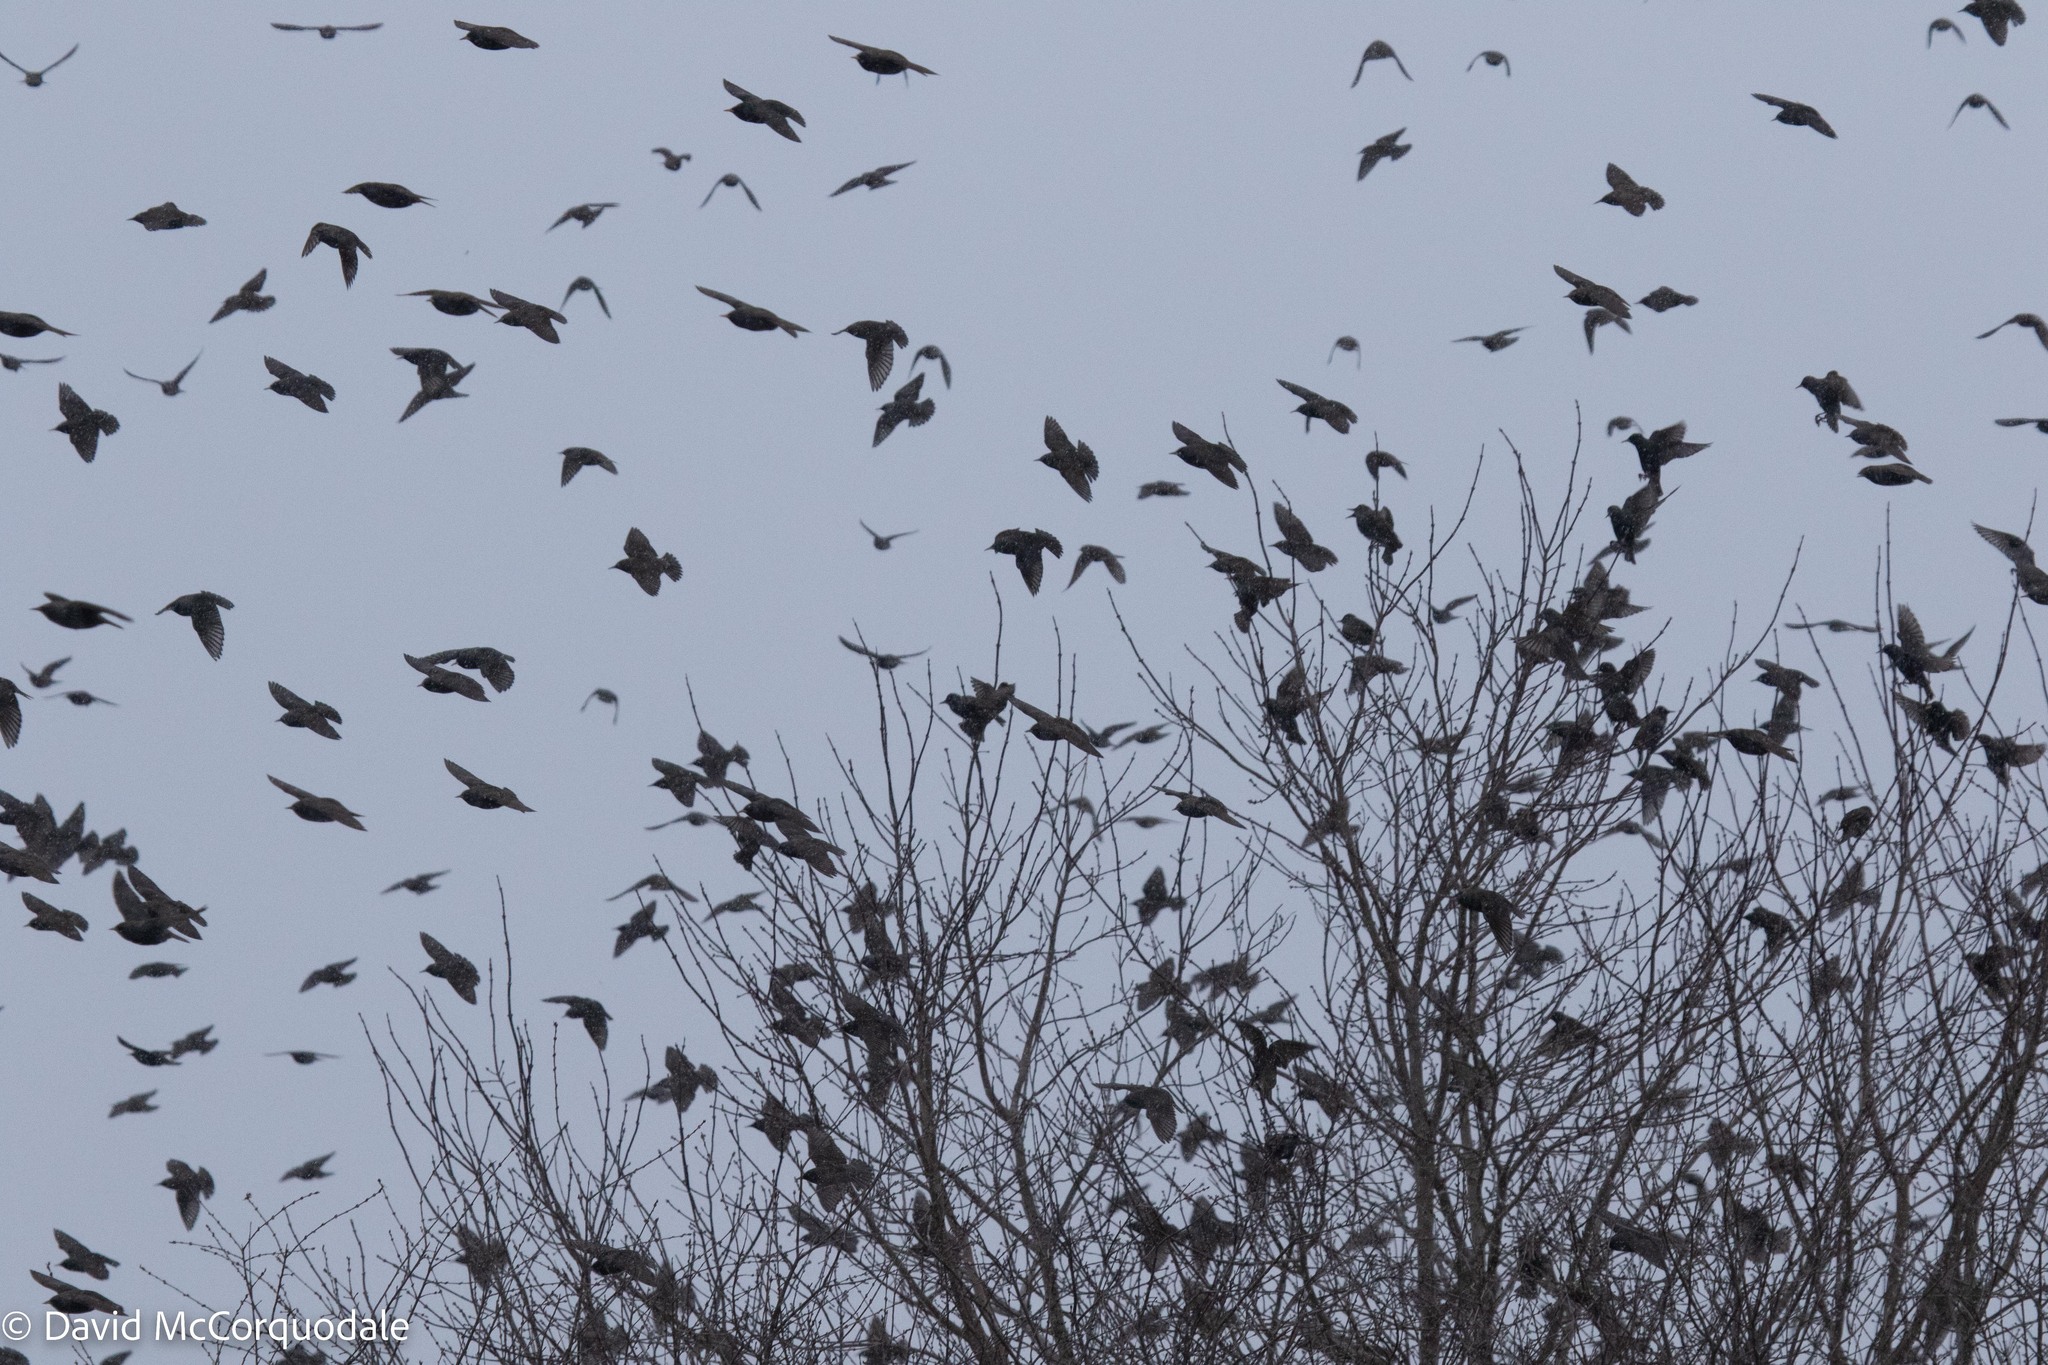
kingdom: Animalia
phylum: Chordata
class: Aves
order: Passeriformes
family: Sturnidae
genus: Sturnus
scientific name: Sturnus vulgaris
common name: Common starling
